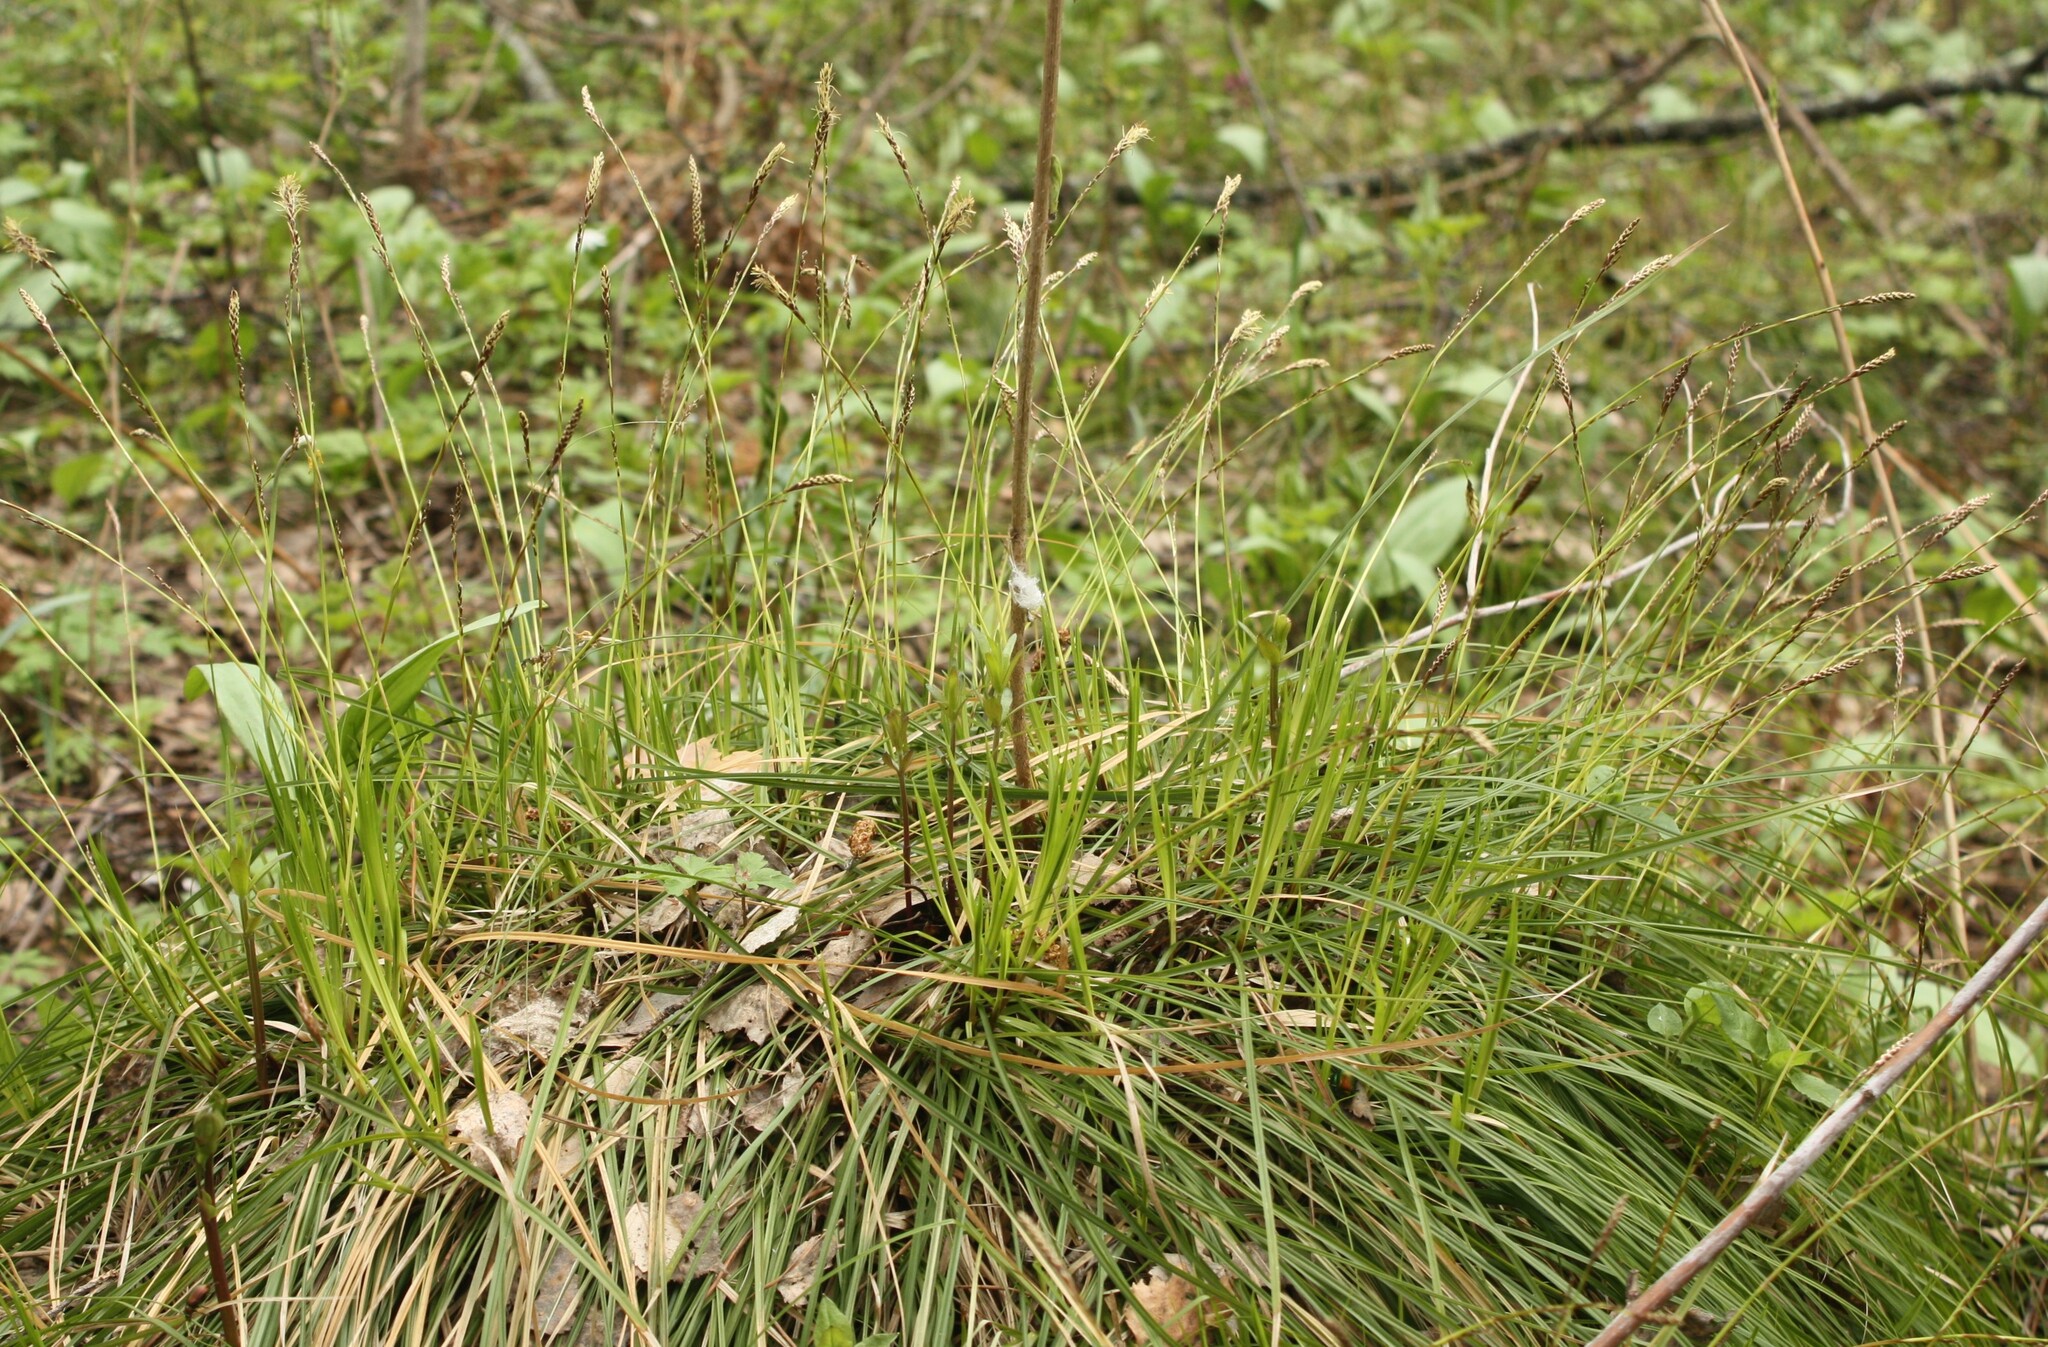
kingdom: Plantae
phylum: Tracheophyta
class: Liliopsida
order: Poales
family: Cyperaceae
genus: Carex
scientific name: Carex pediformis
